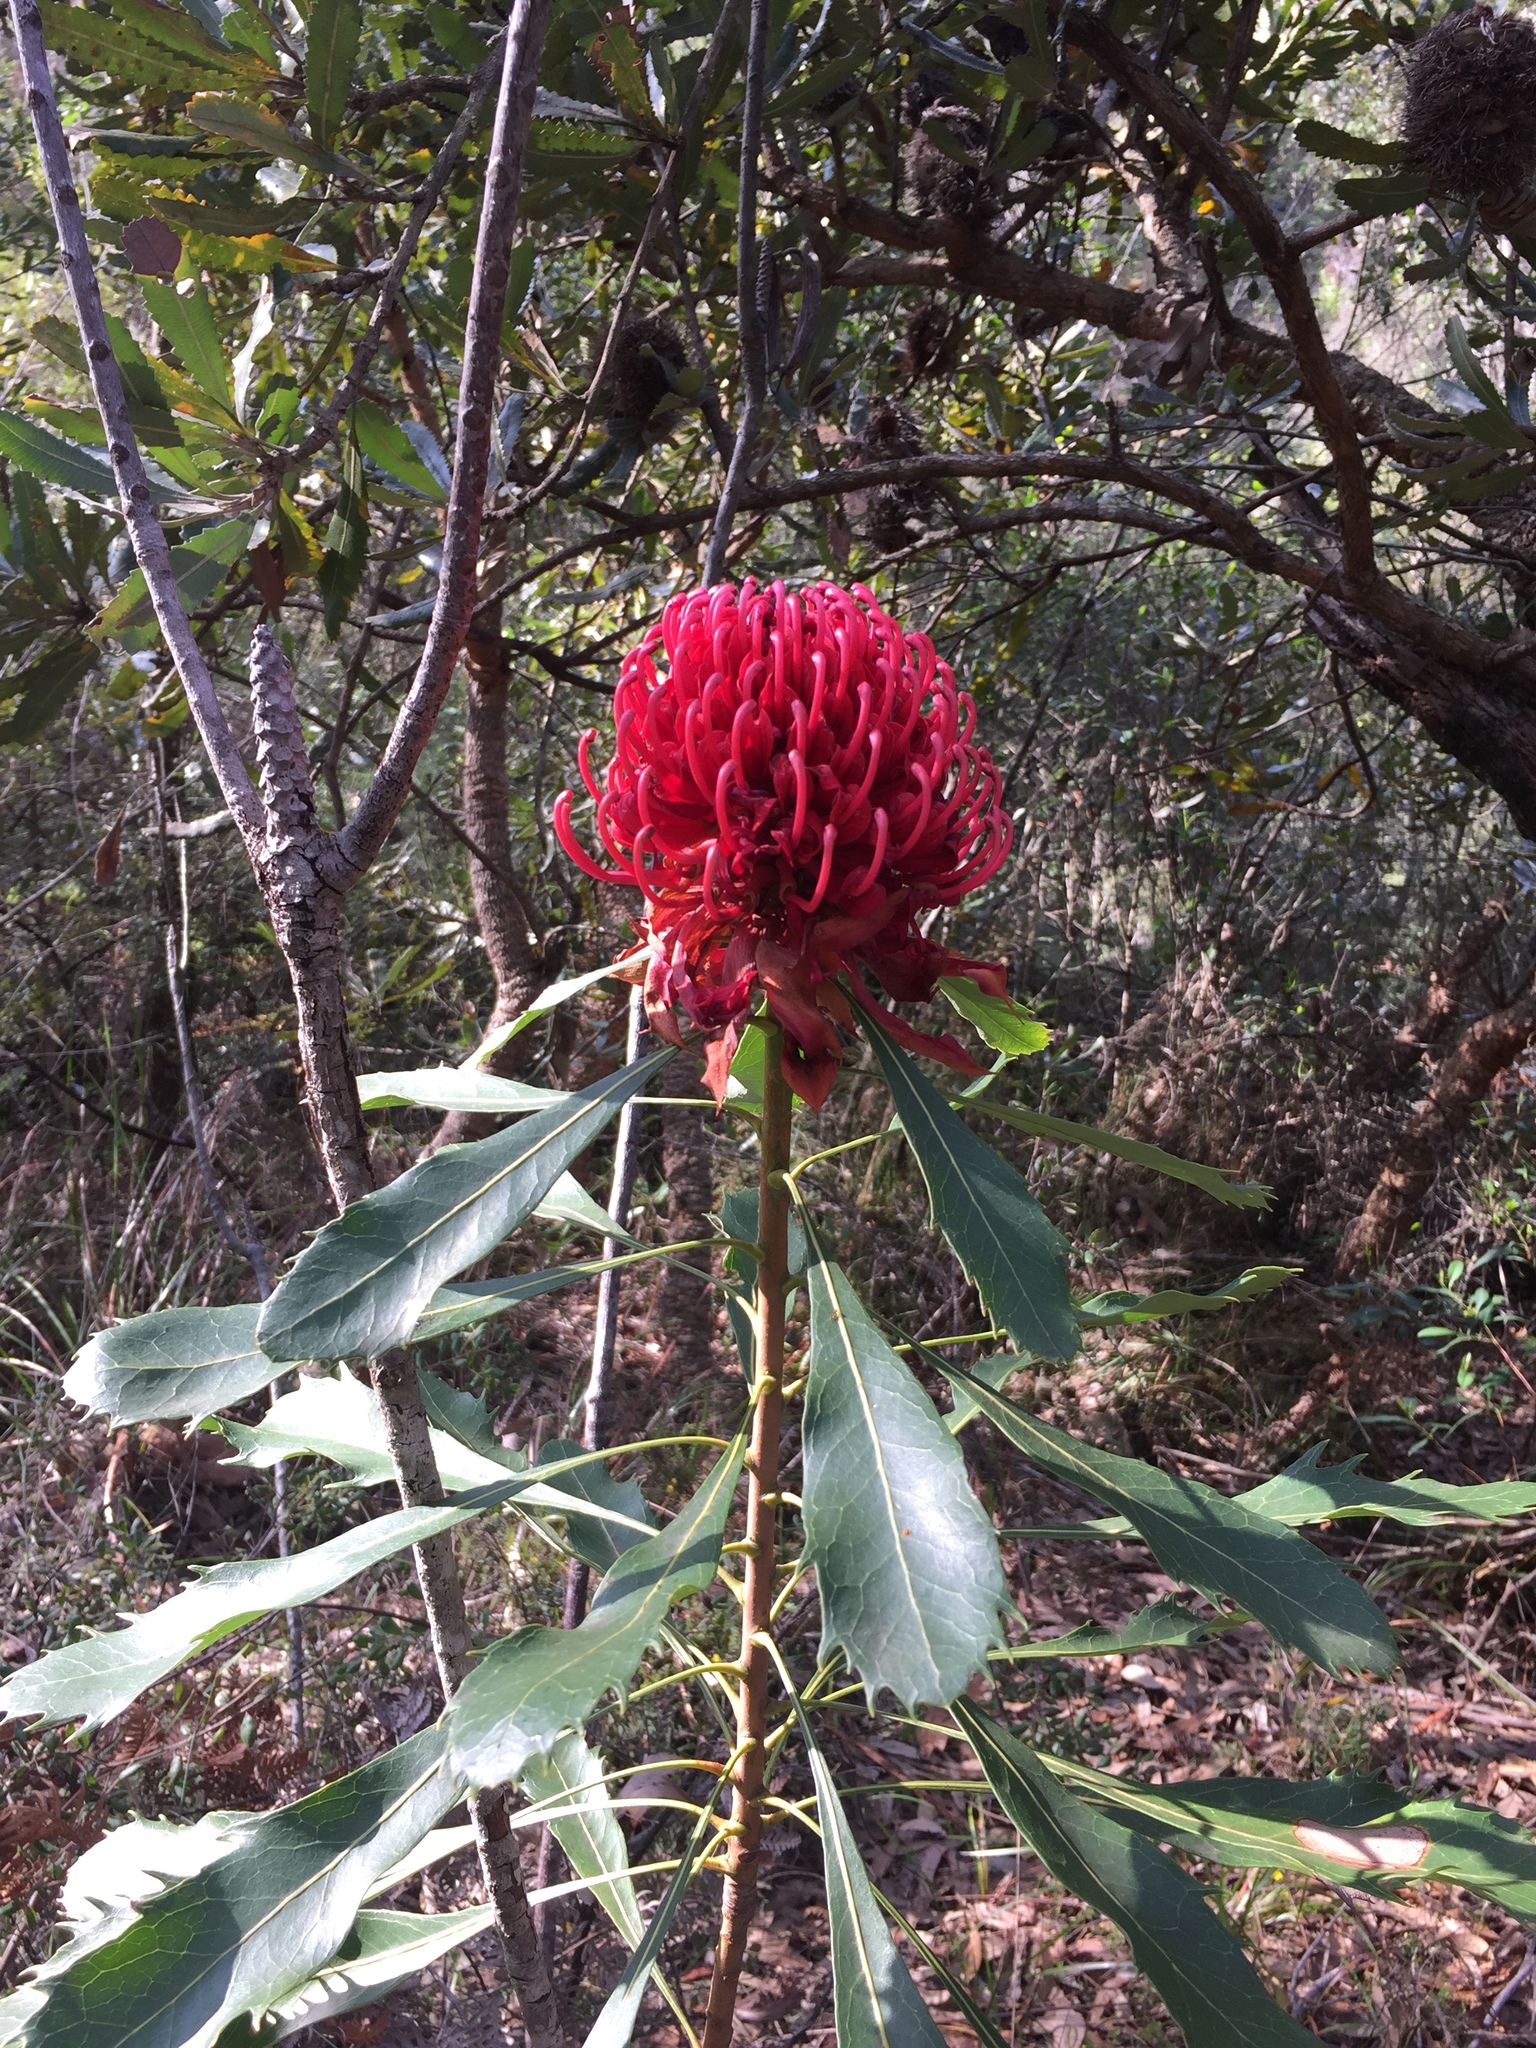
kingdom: Plantae
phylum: Tracheophyta
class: Magnoliopsida
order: Proteales
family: Proteaceae
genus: Telopea
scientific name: Telopea speciosissima
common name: New south wales waratah
